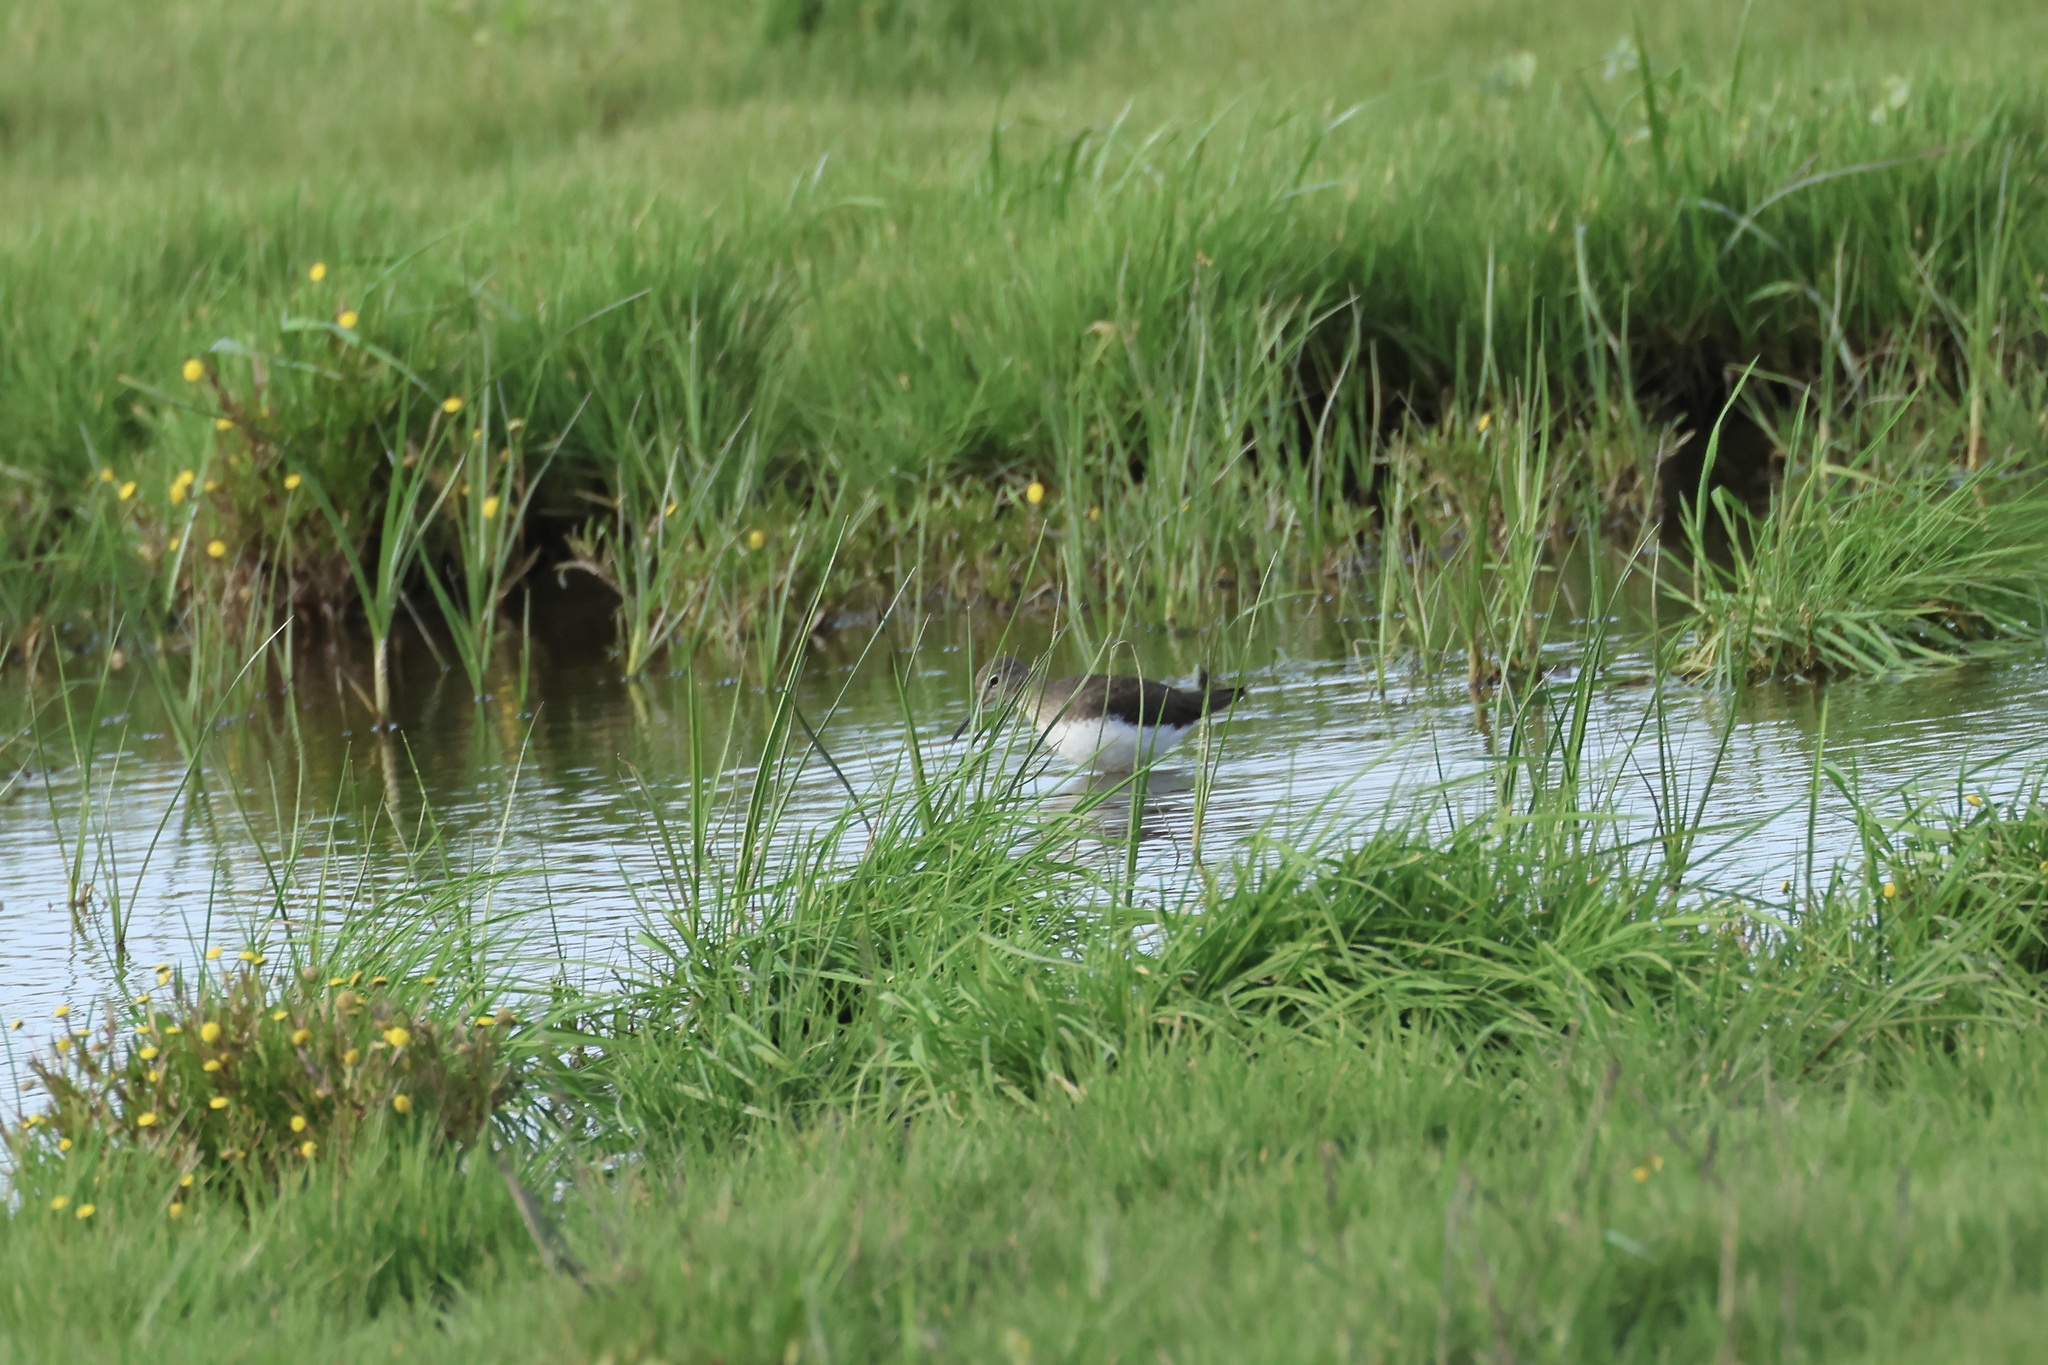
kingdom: Animalia
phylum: Chordata
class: Aves
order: Charadriiformes
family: Scolopacidae
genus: Tringa
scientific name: Tringa ochropus
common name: Green sandpiper
